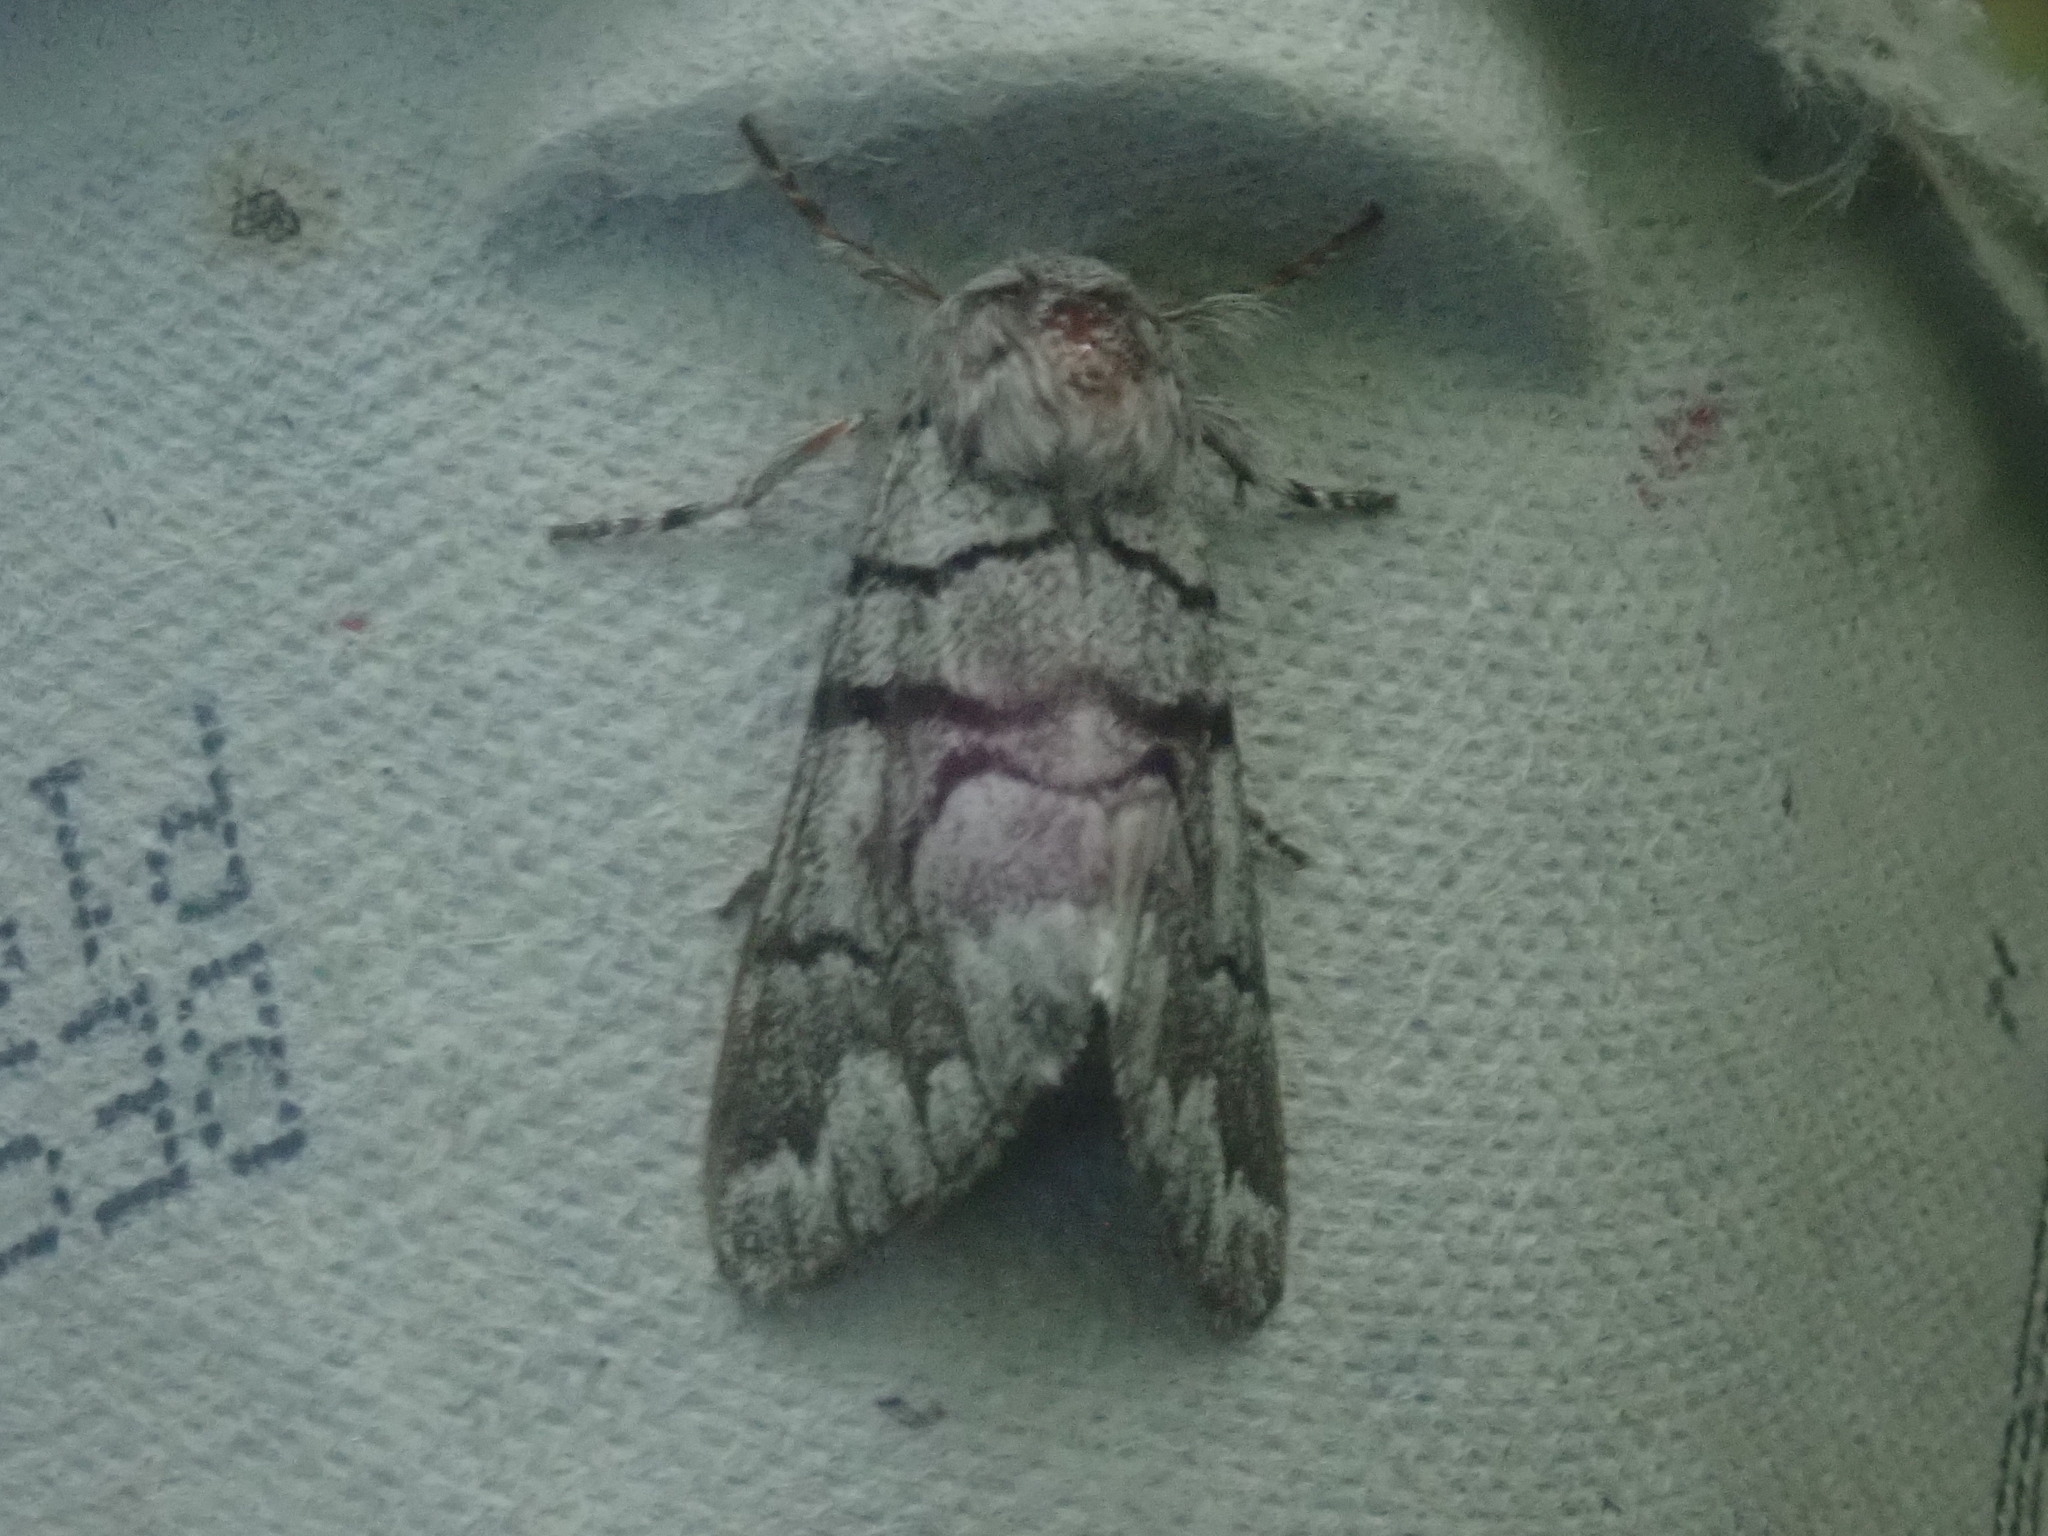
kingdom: Animalia
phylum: Arthropoda
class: Insecta
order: Lepidoptera
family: Noctuidae
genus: Panthea
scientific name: Panthea furcilla
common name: Eastern panthea moth
